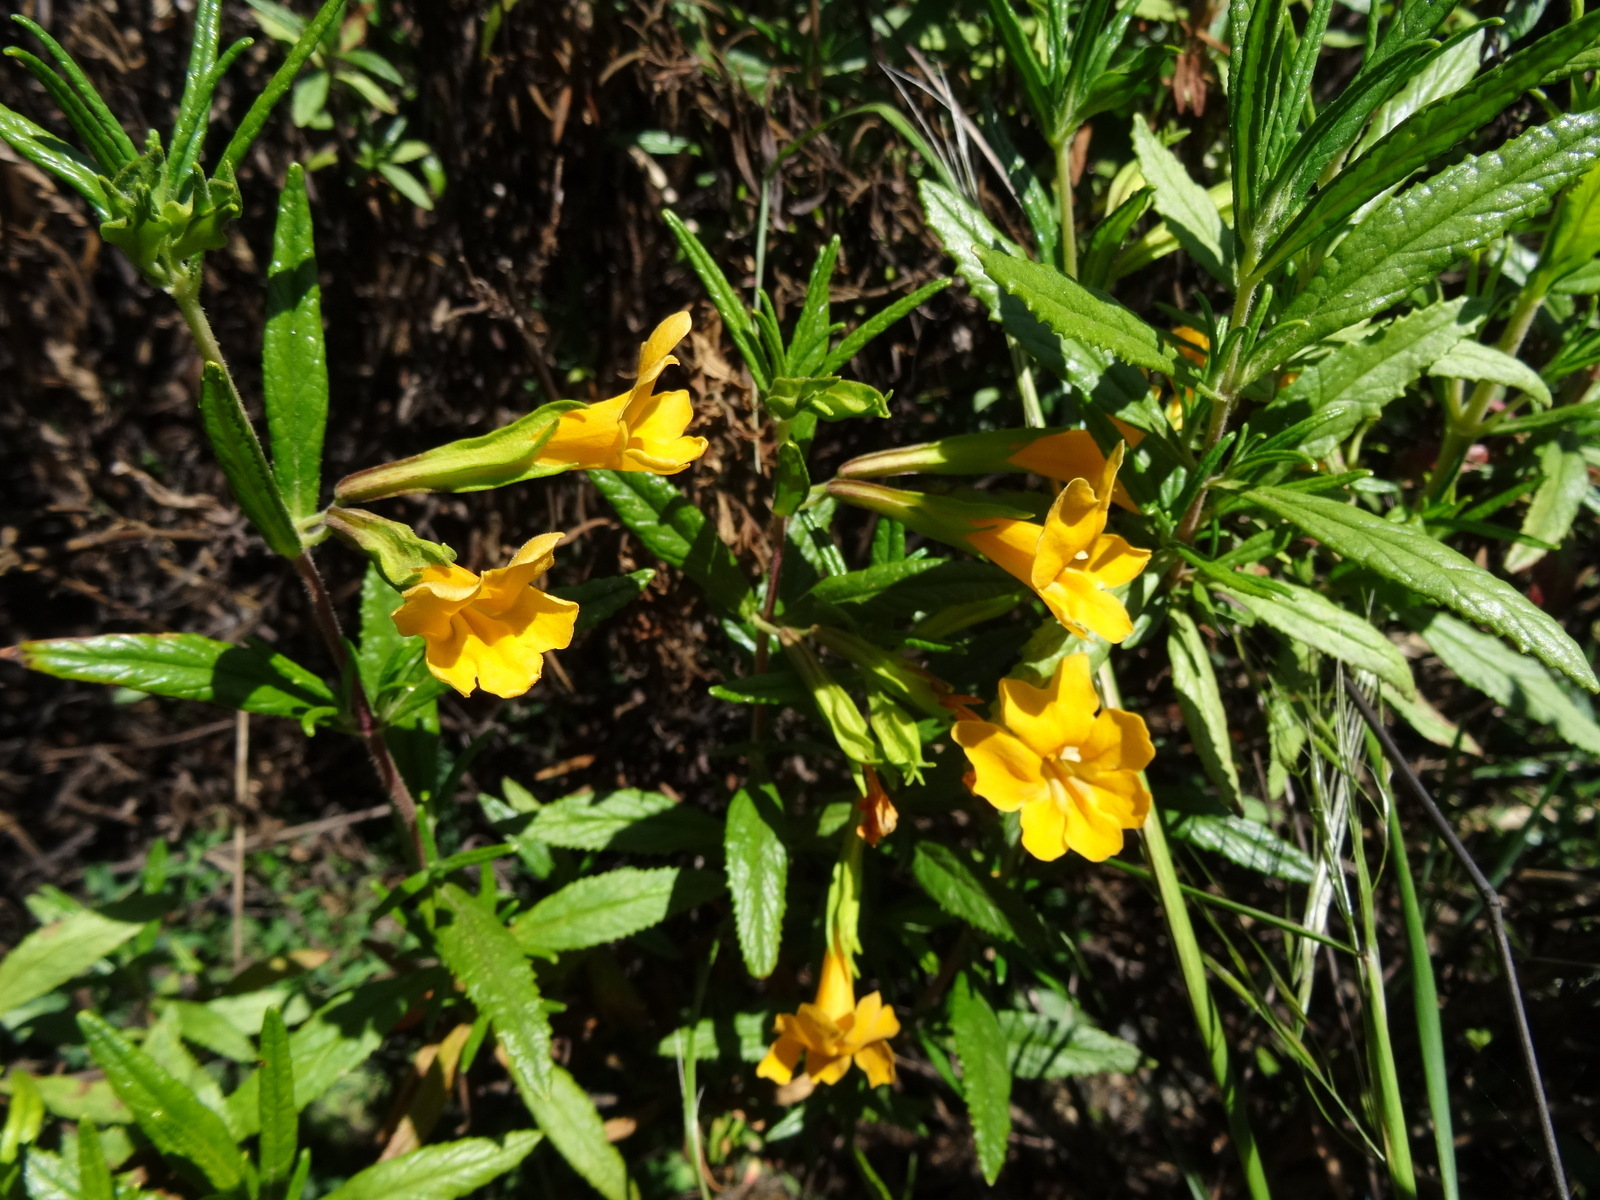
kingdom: Plantae
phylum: Tracheophyta
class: Magnoliopsida
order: Lamiales
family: Phrymaceae
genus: Diplacus
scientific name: Diplacus aurantiacus
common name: Bush monkey-flower
